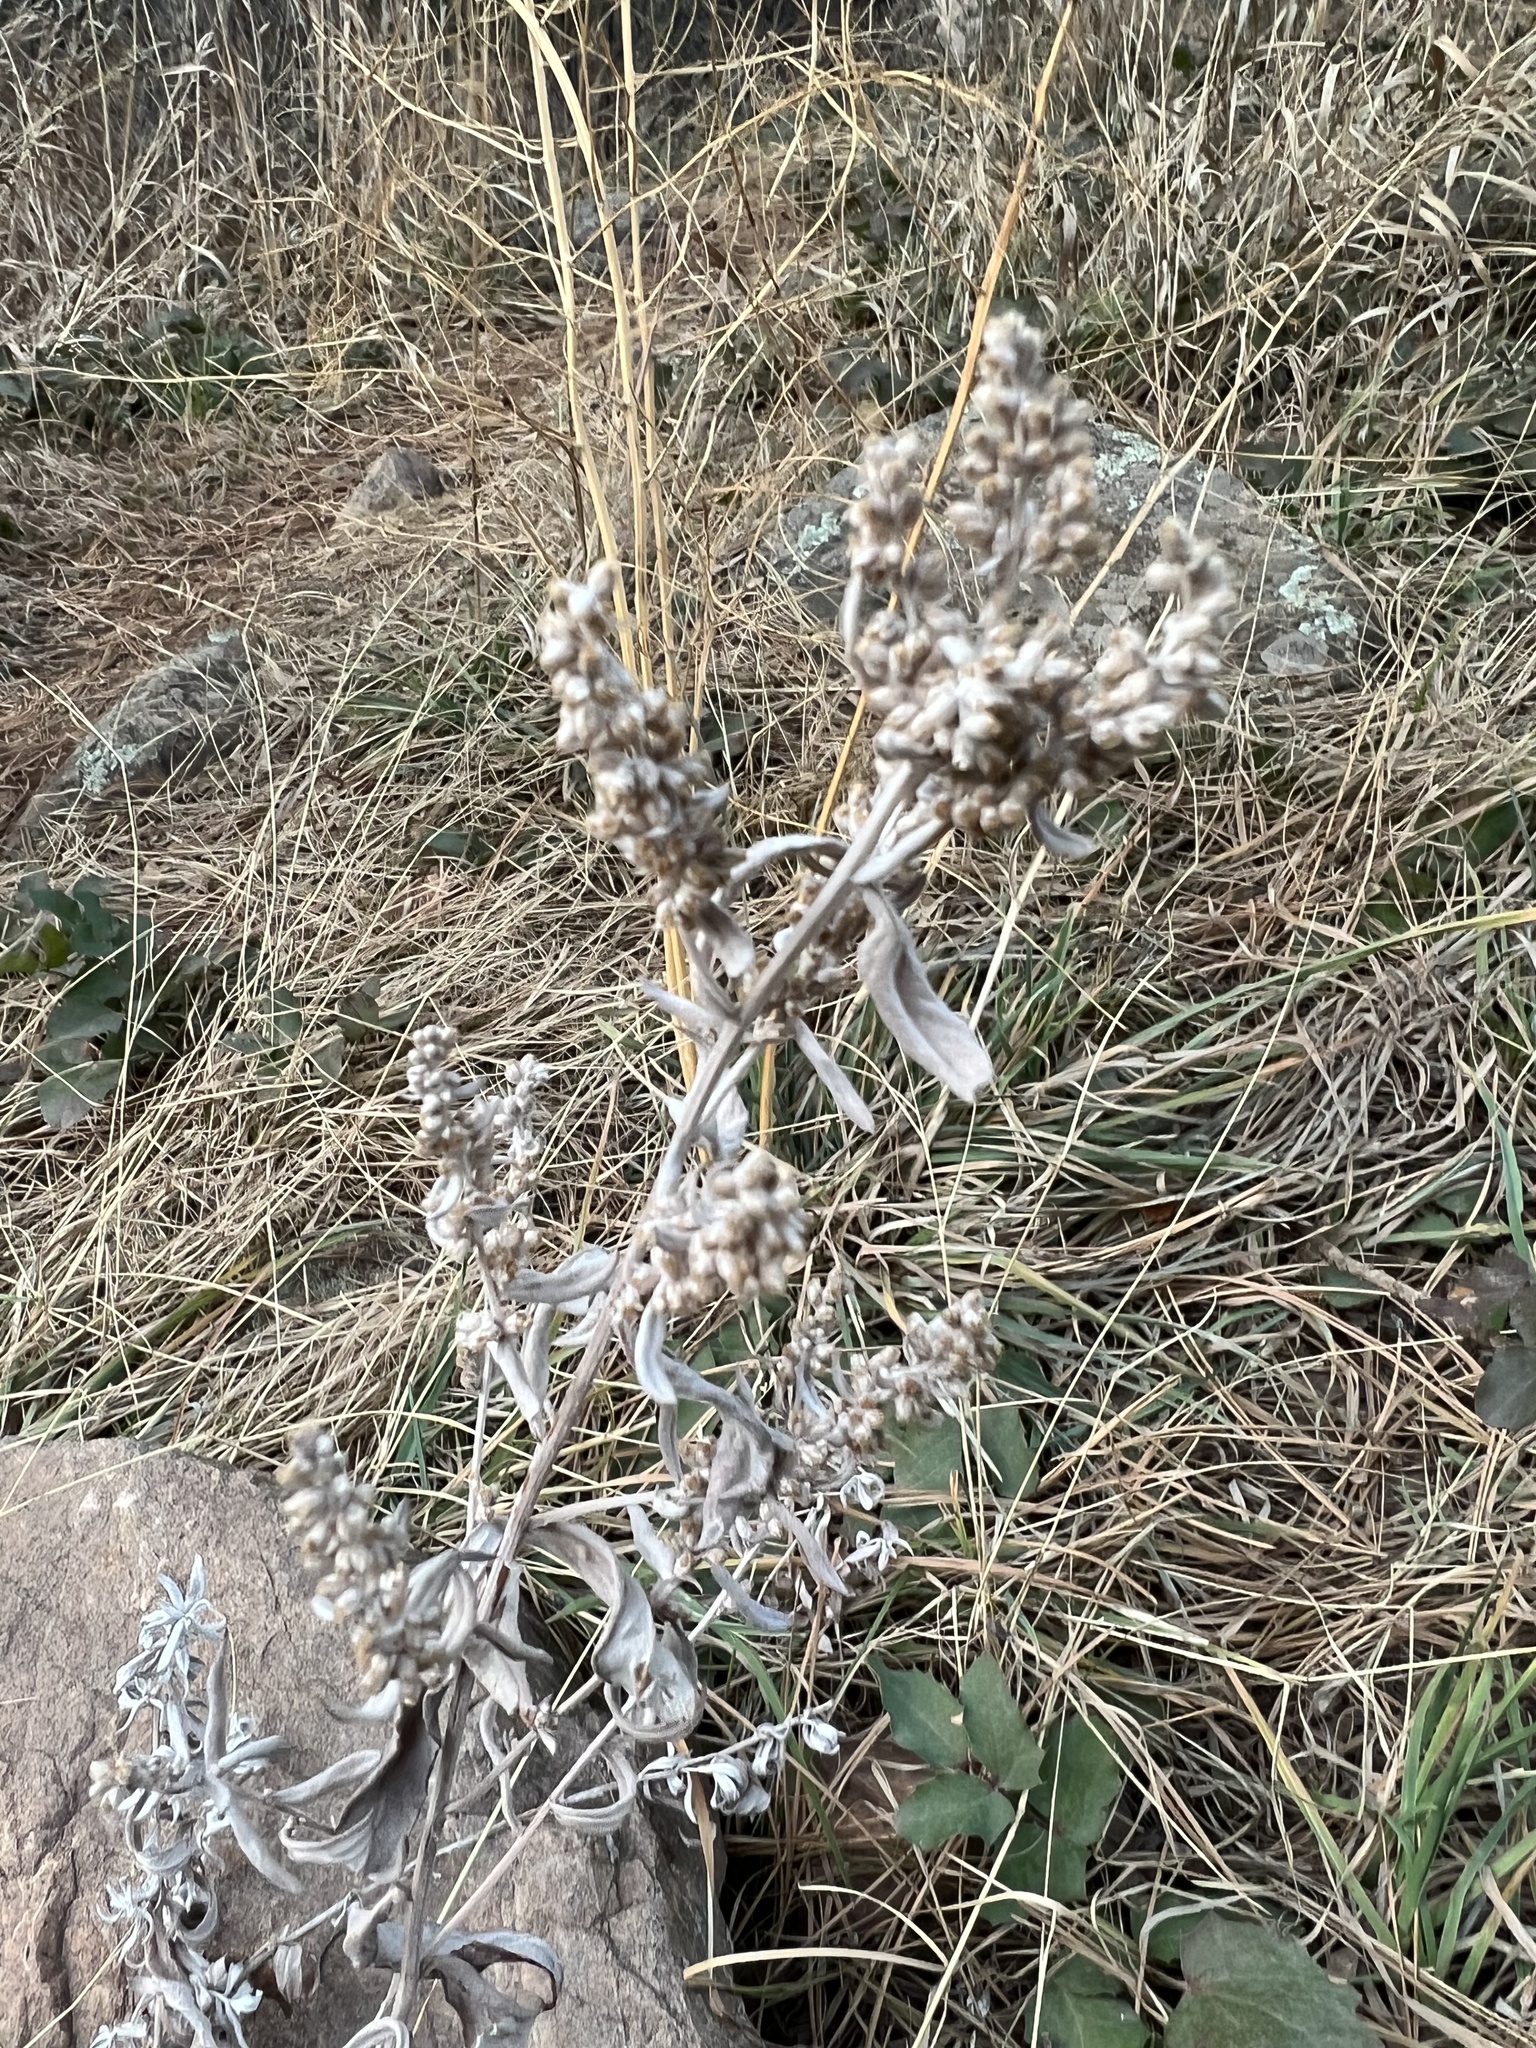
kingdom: Plantae
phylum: Tracheophyta
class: Magnoliopsida
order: Asterales
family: Asteraceae
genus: Artemisia
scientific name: Artemisia ludoviciana
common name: Western mugwort
